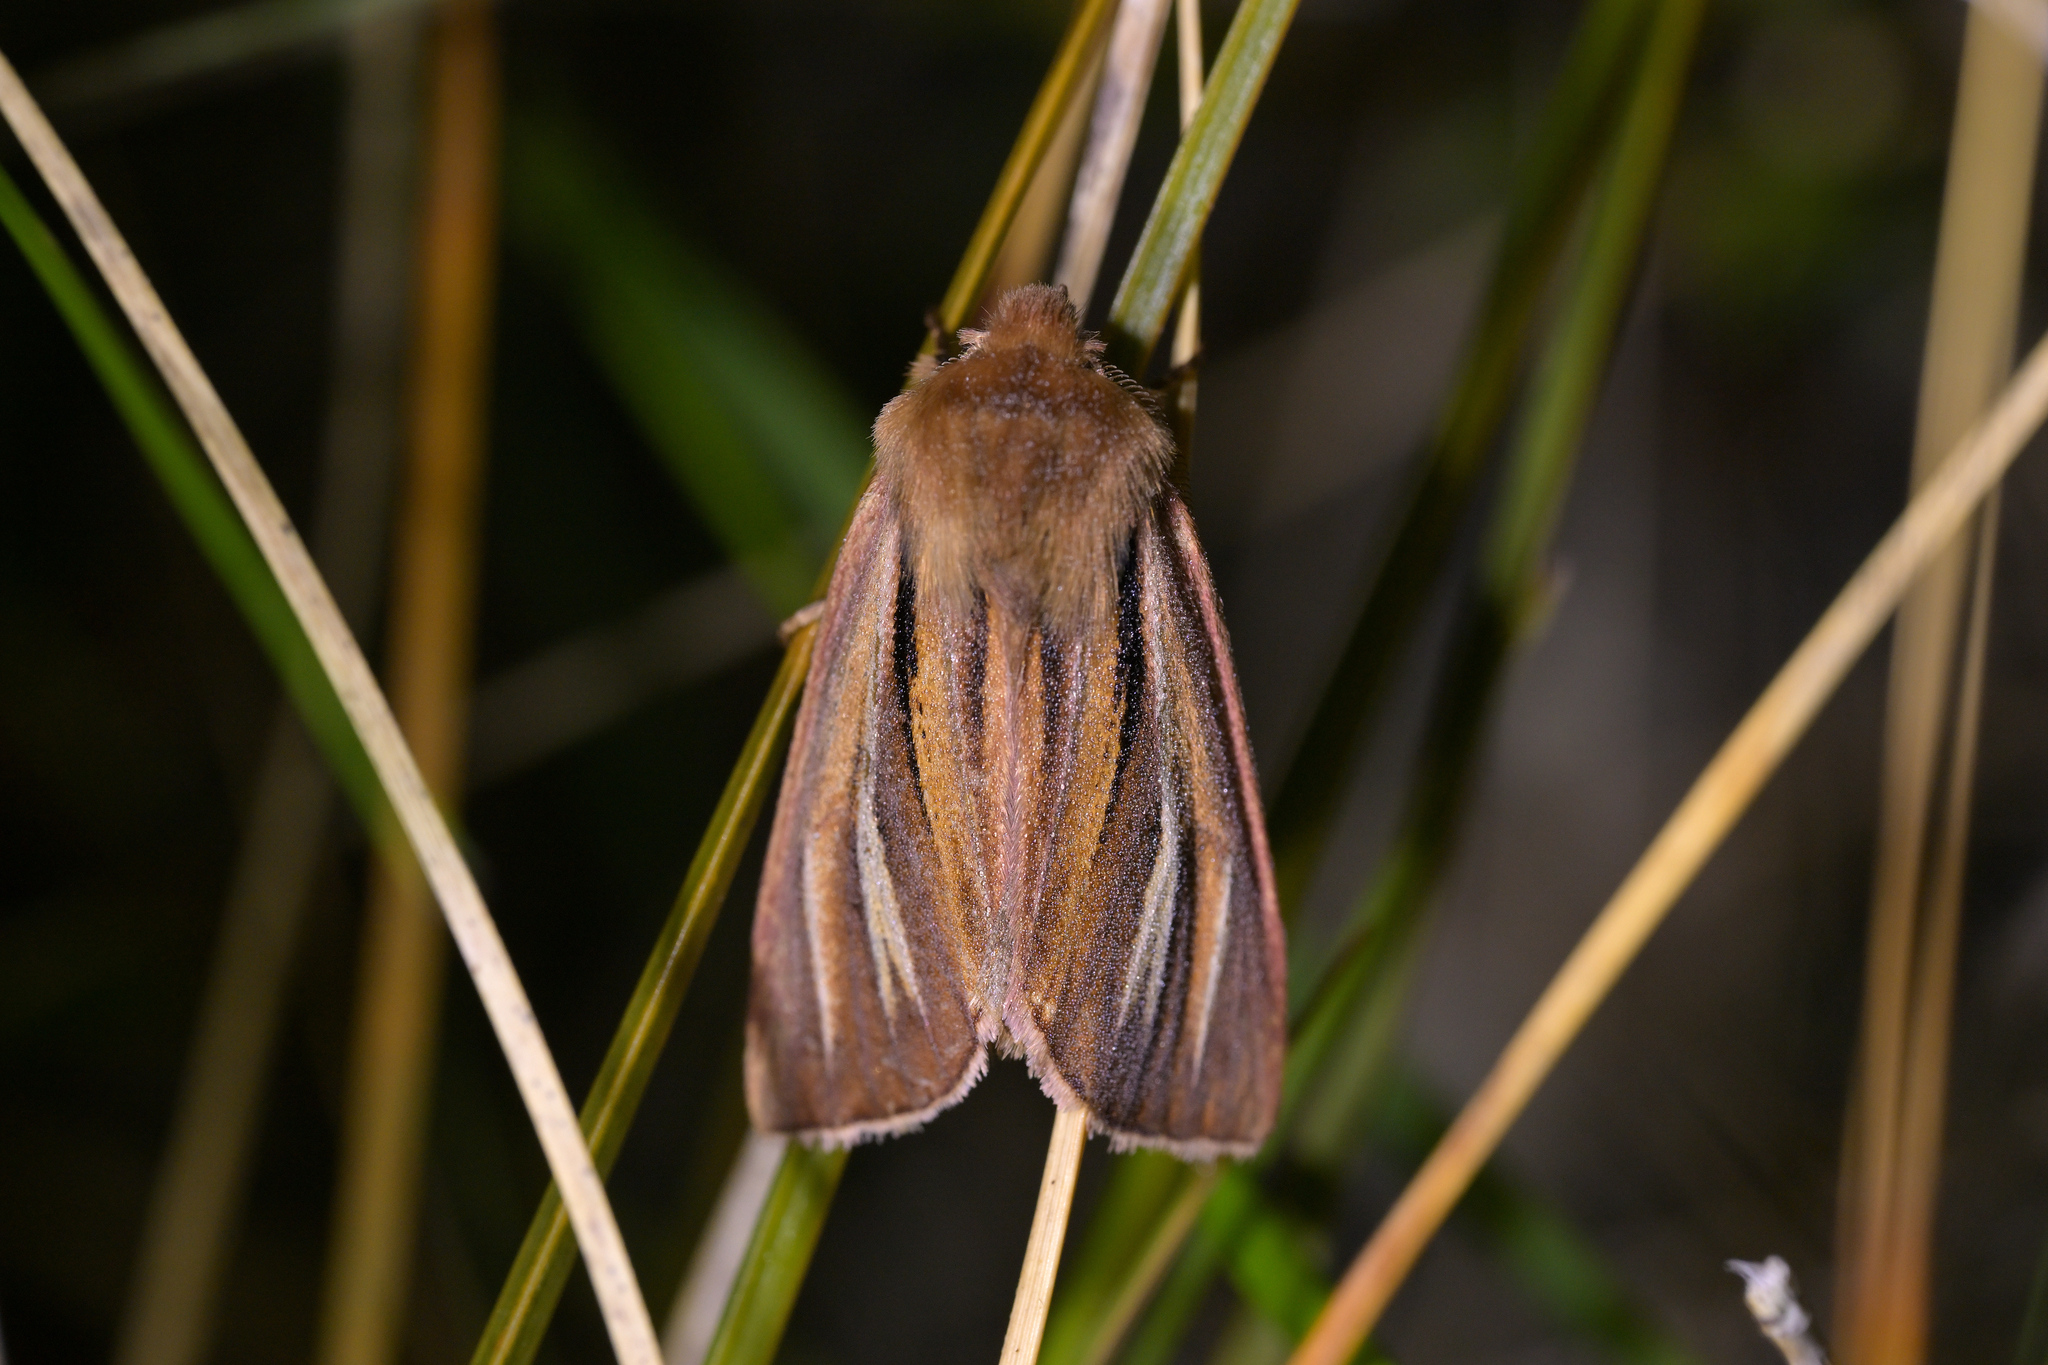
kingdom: Animalia
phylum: Arthropoda
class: Insecta
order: Lepidoptera
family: Noctuidae
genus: Ichneutica
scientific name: Ichneutica caraunias
